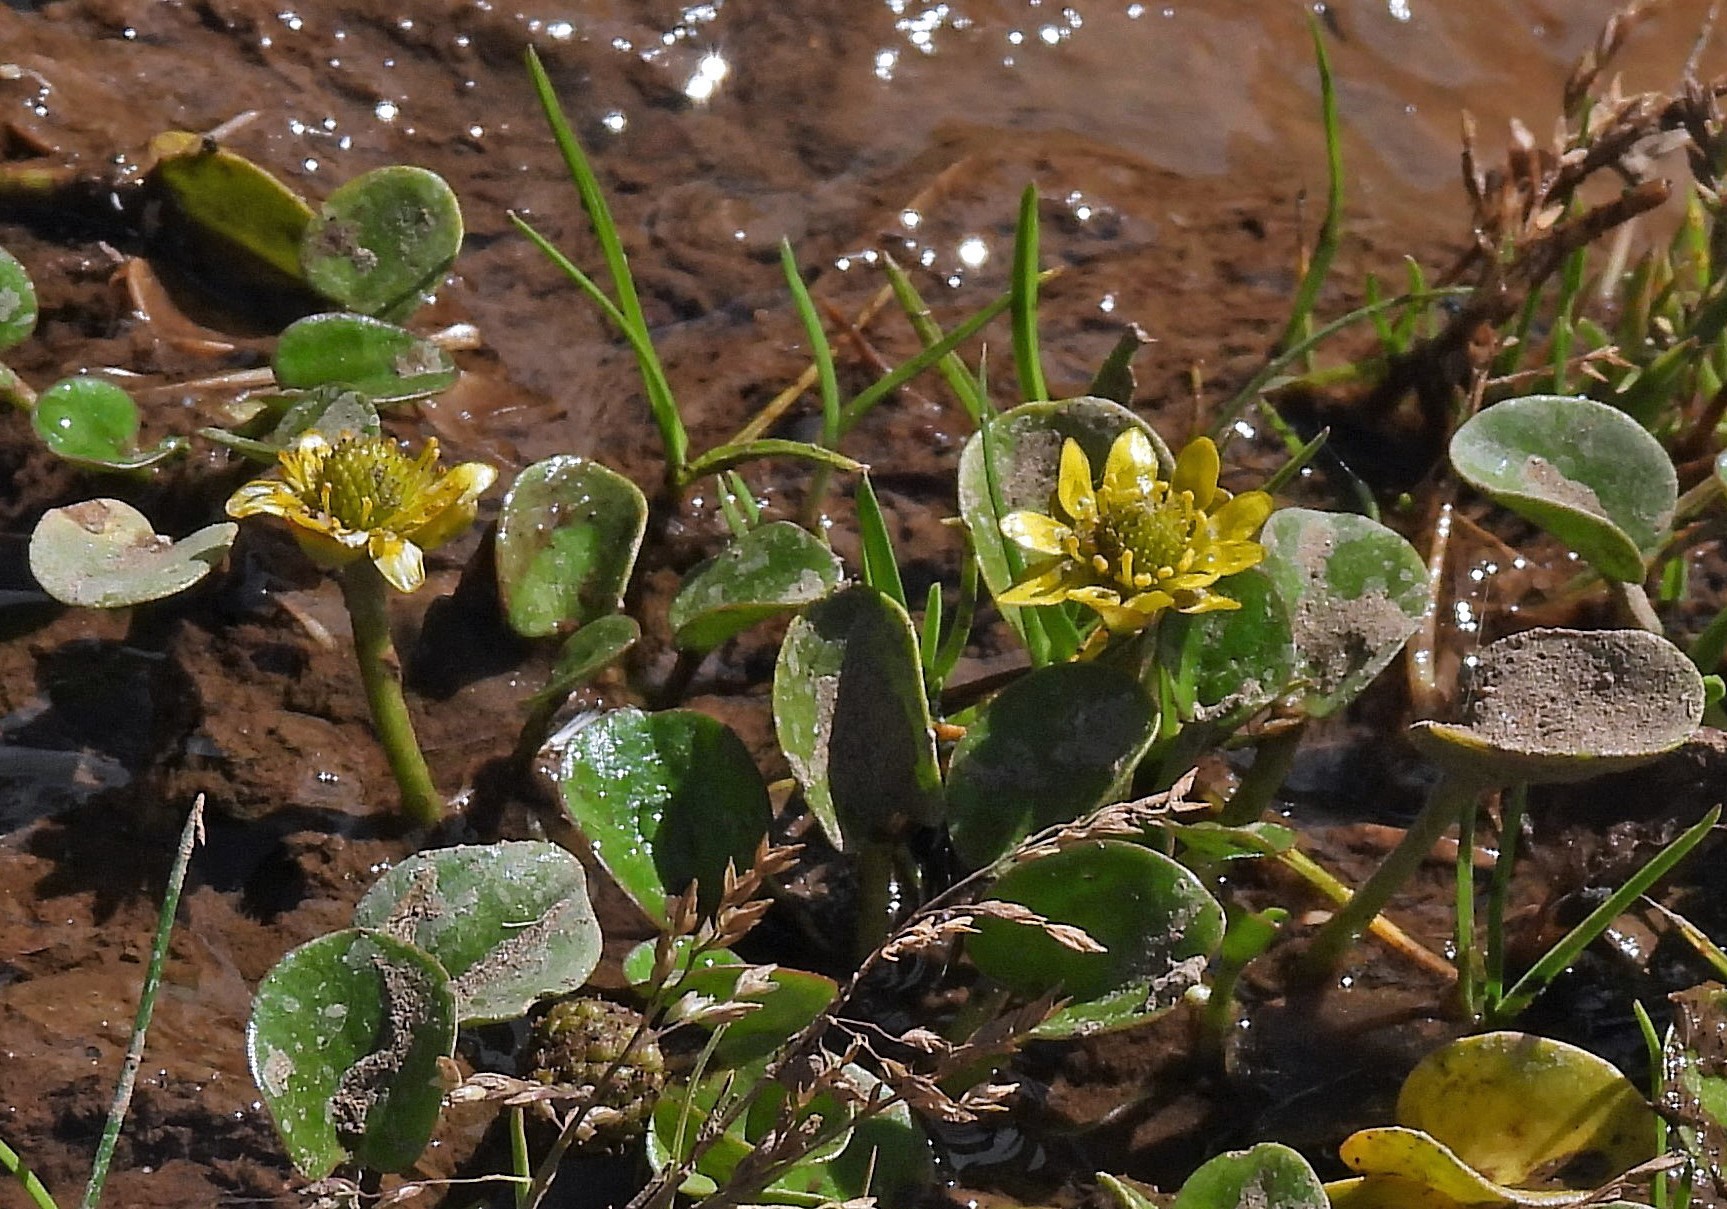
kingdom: Plantae
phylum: Tracheophyta
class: Magnoliopsida
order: Ranunculales
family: Ranunculaceae
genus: Halerpestes
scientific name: Halerpestes uniflora
